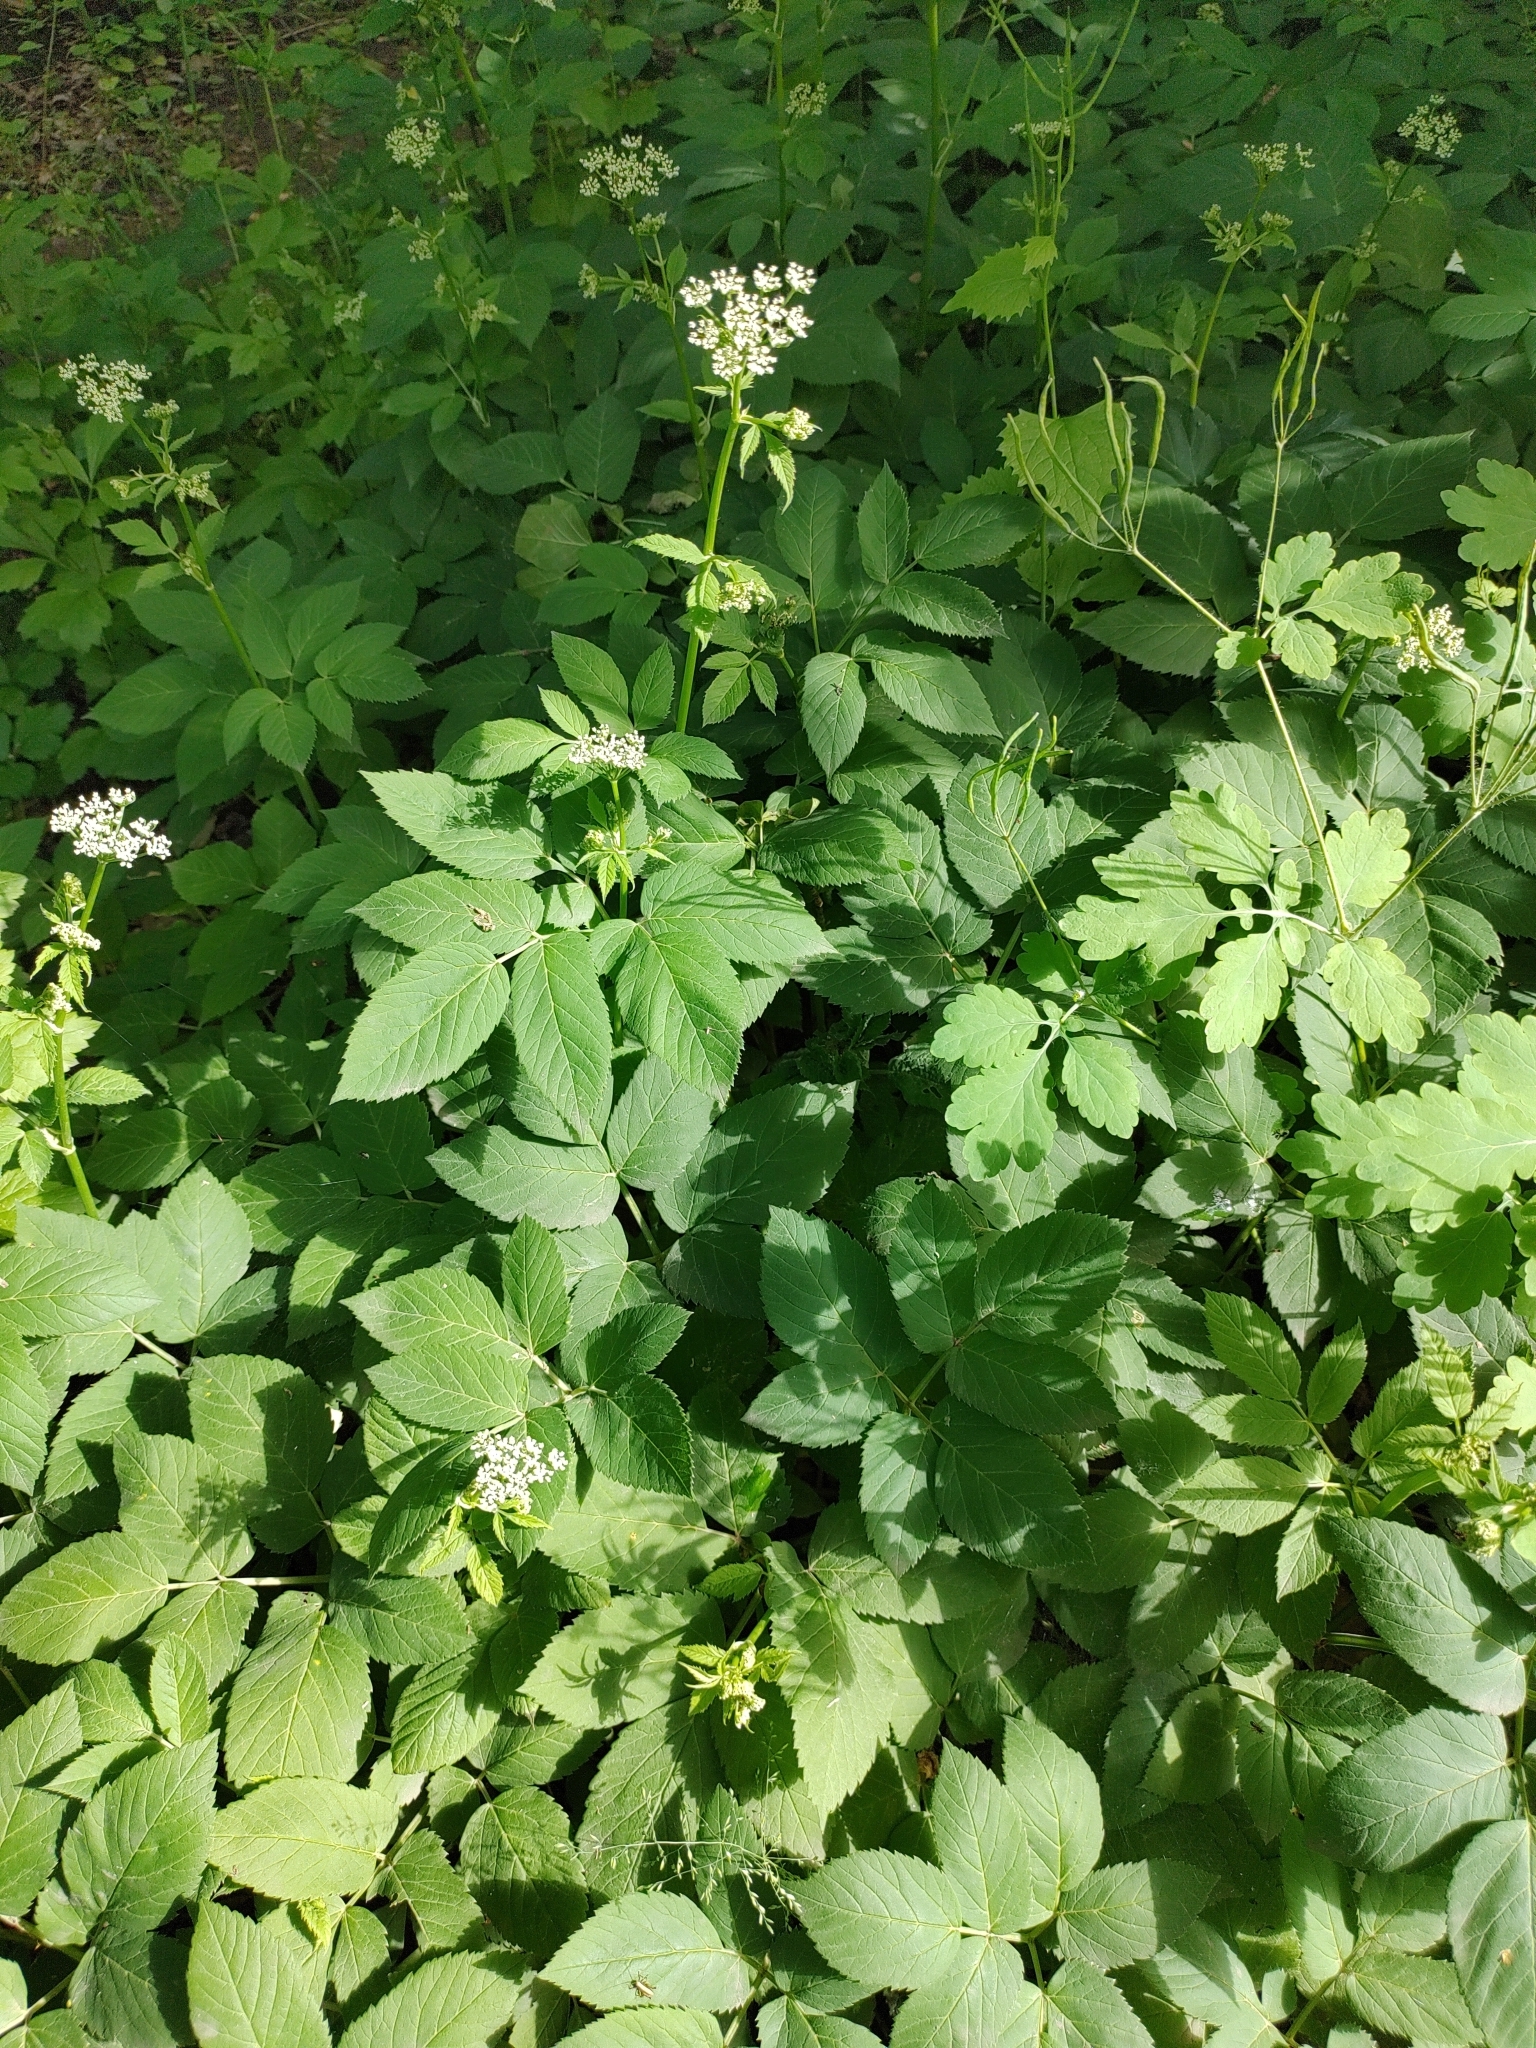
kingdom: Plantae
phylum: Tracheophyta
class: Magnoliopsida
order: Apiales
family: Apiaceae
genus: Aegopodium
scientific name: Aegopodium podagraria
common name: Ground-elder
